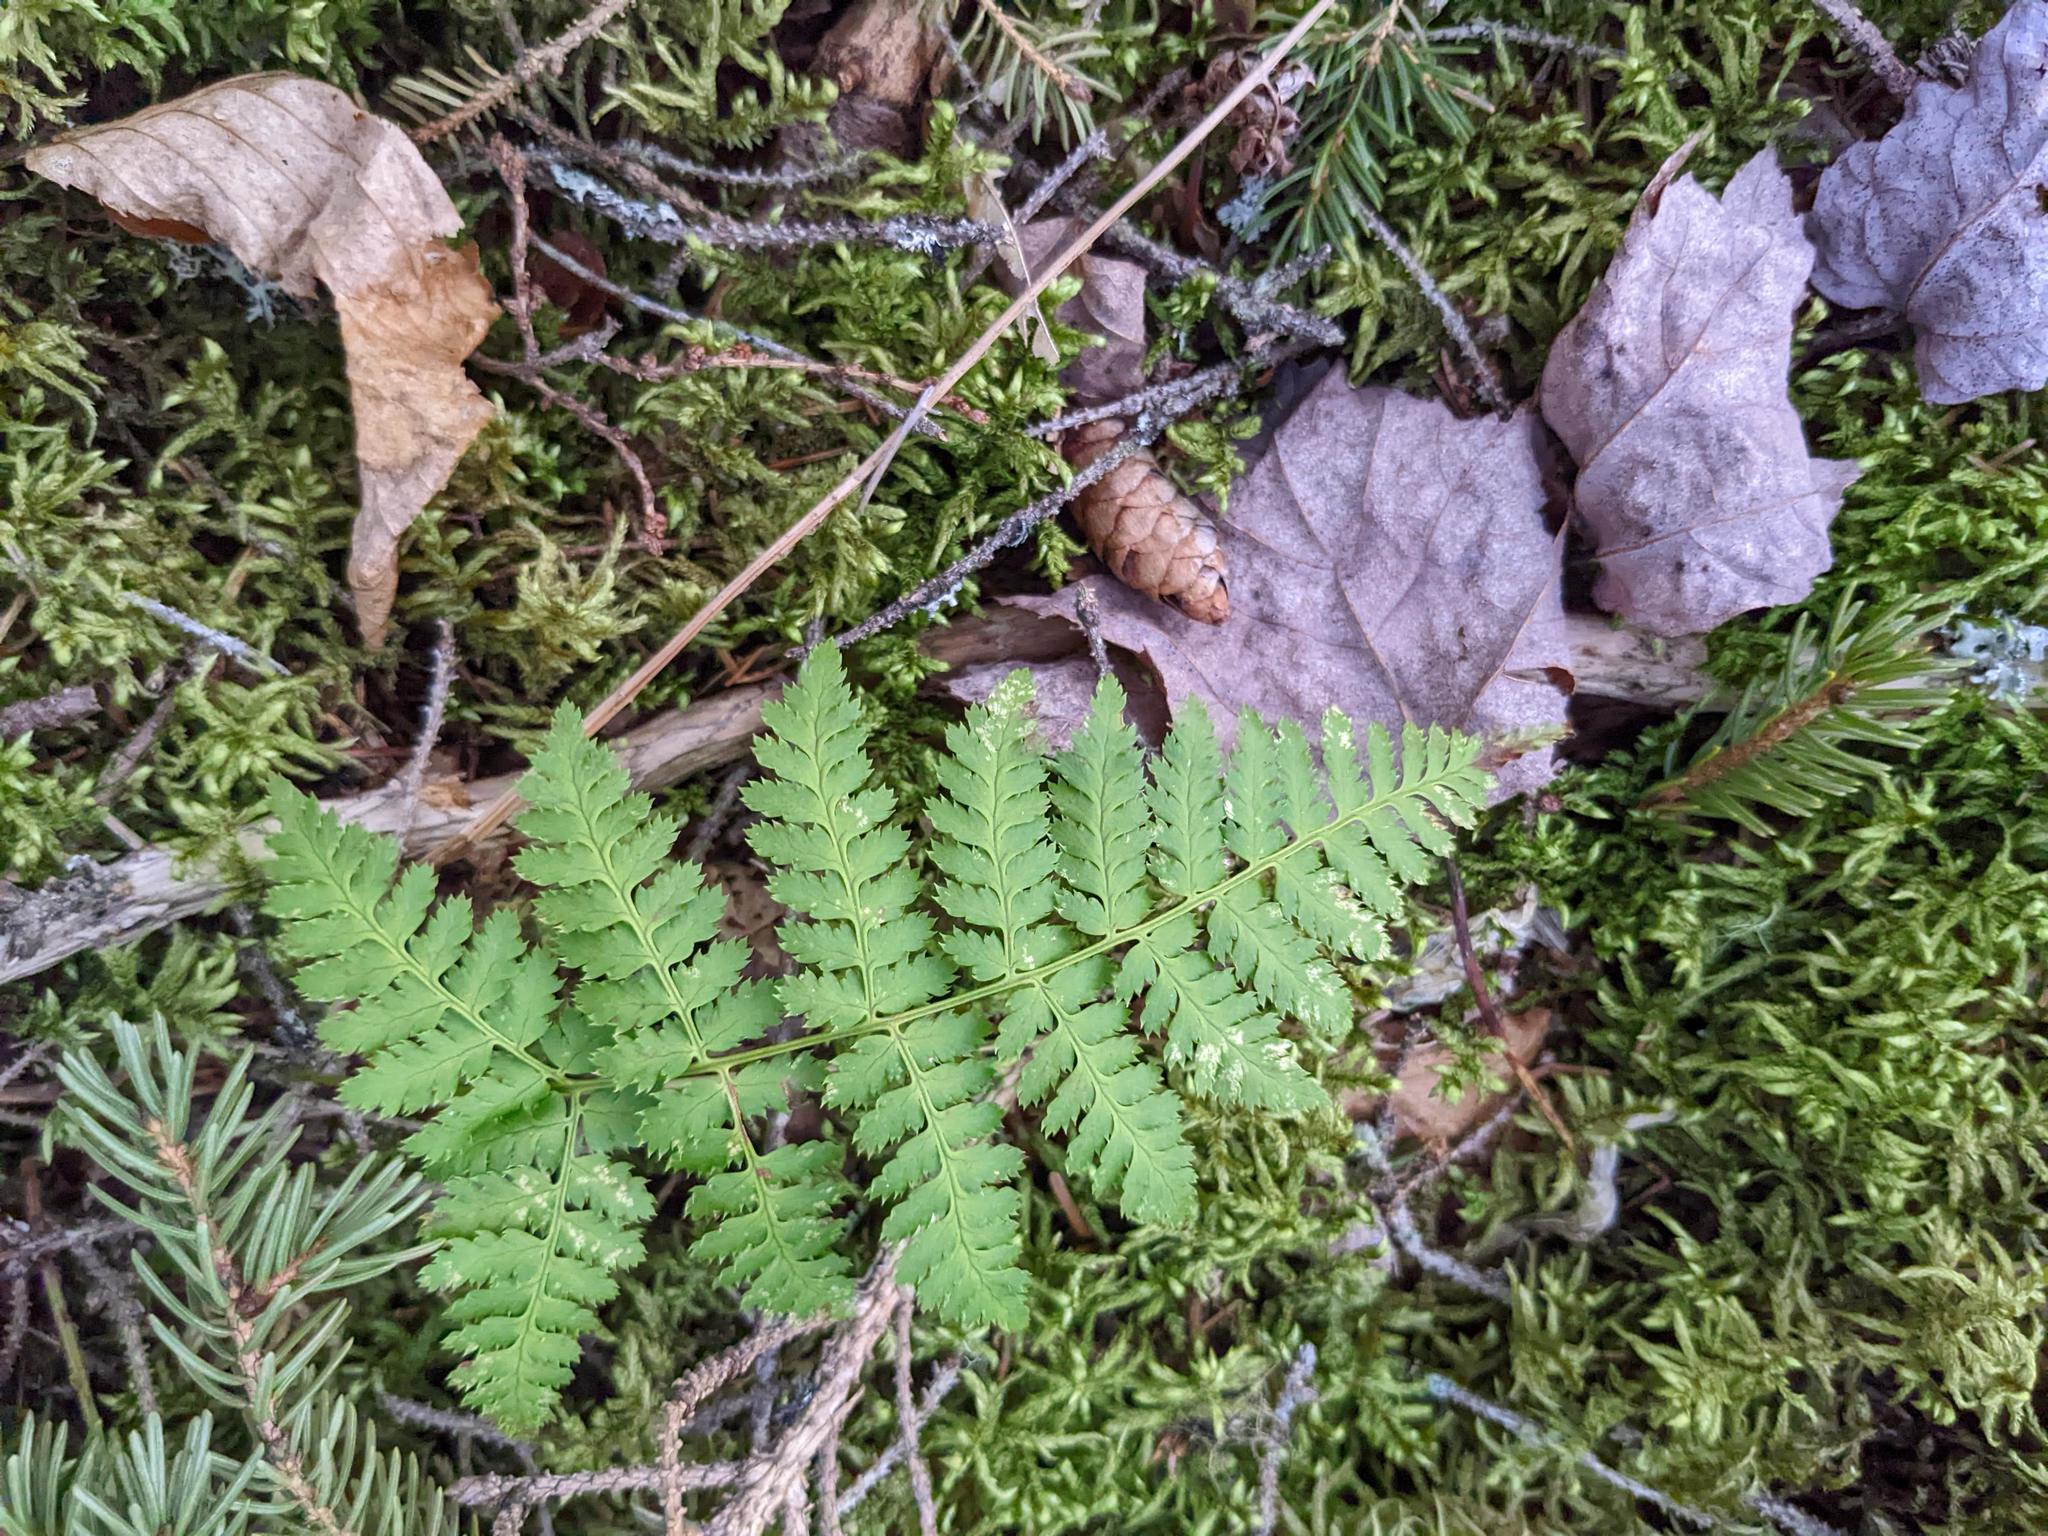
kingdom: Plantae
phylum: Tracheophyta
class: Polypodiopsida
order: Polypodiales
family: Dryopteridaceae
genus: Dryopteris
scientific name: Dryopteris intermedia
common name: Evergreen wood fern
